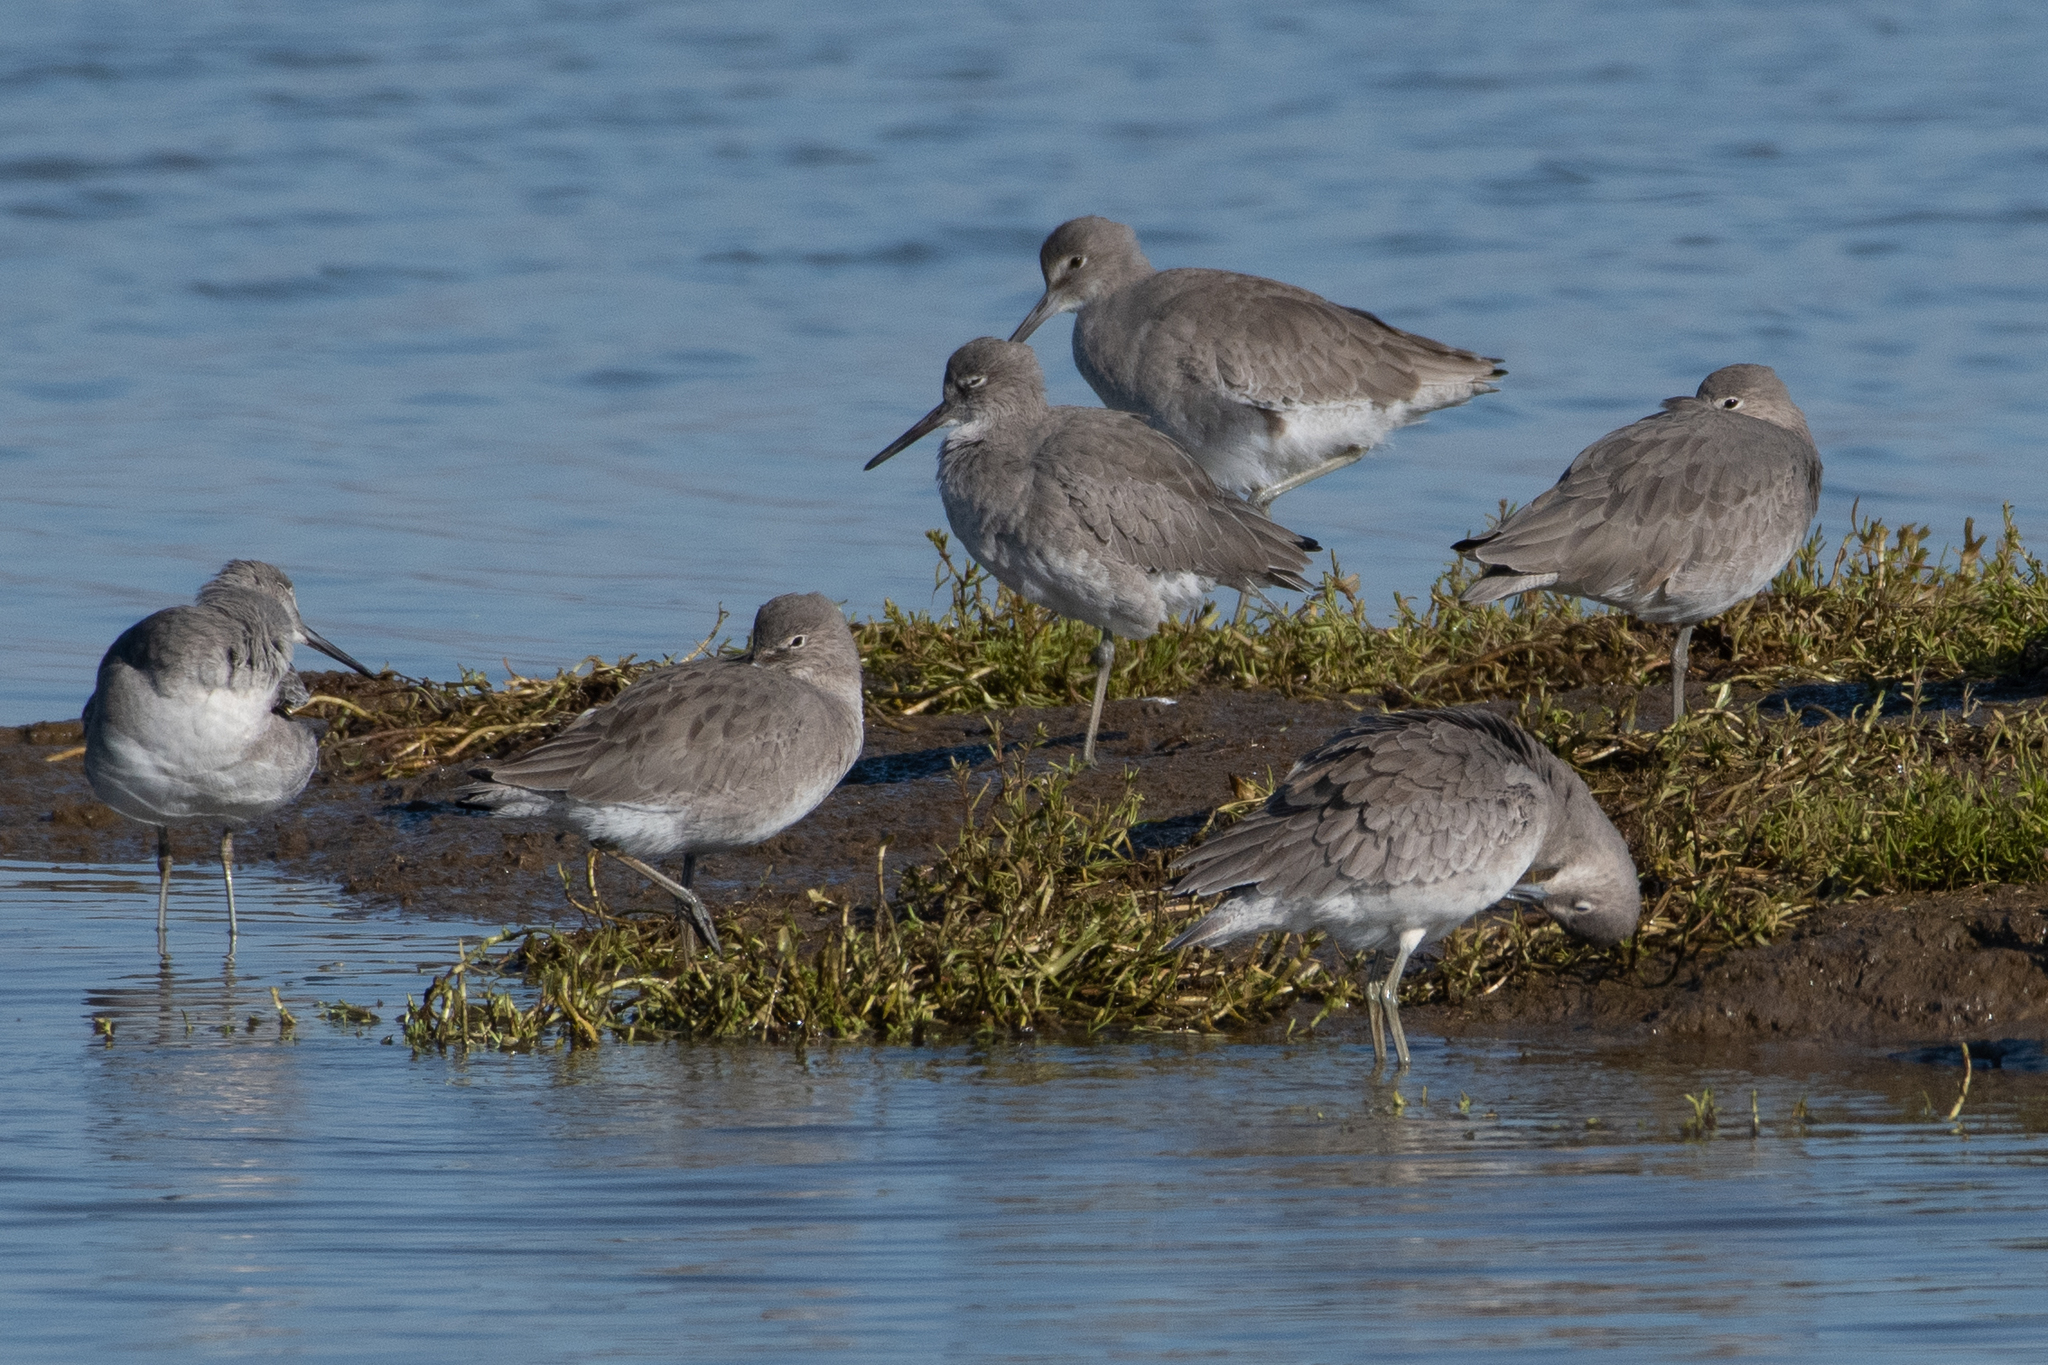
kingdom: Animalia
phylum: Chordata
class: Aves
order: Charadriiformes
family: Scolopacidae
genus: Tringa
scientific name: Tringa semipalmata
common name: Willet
